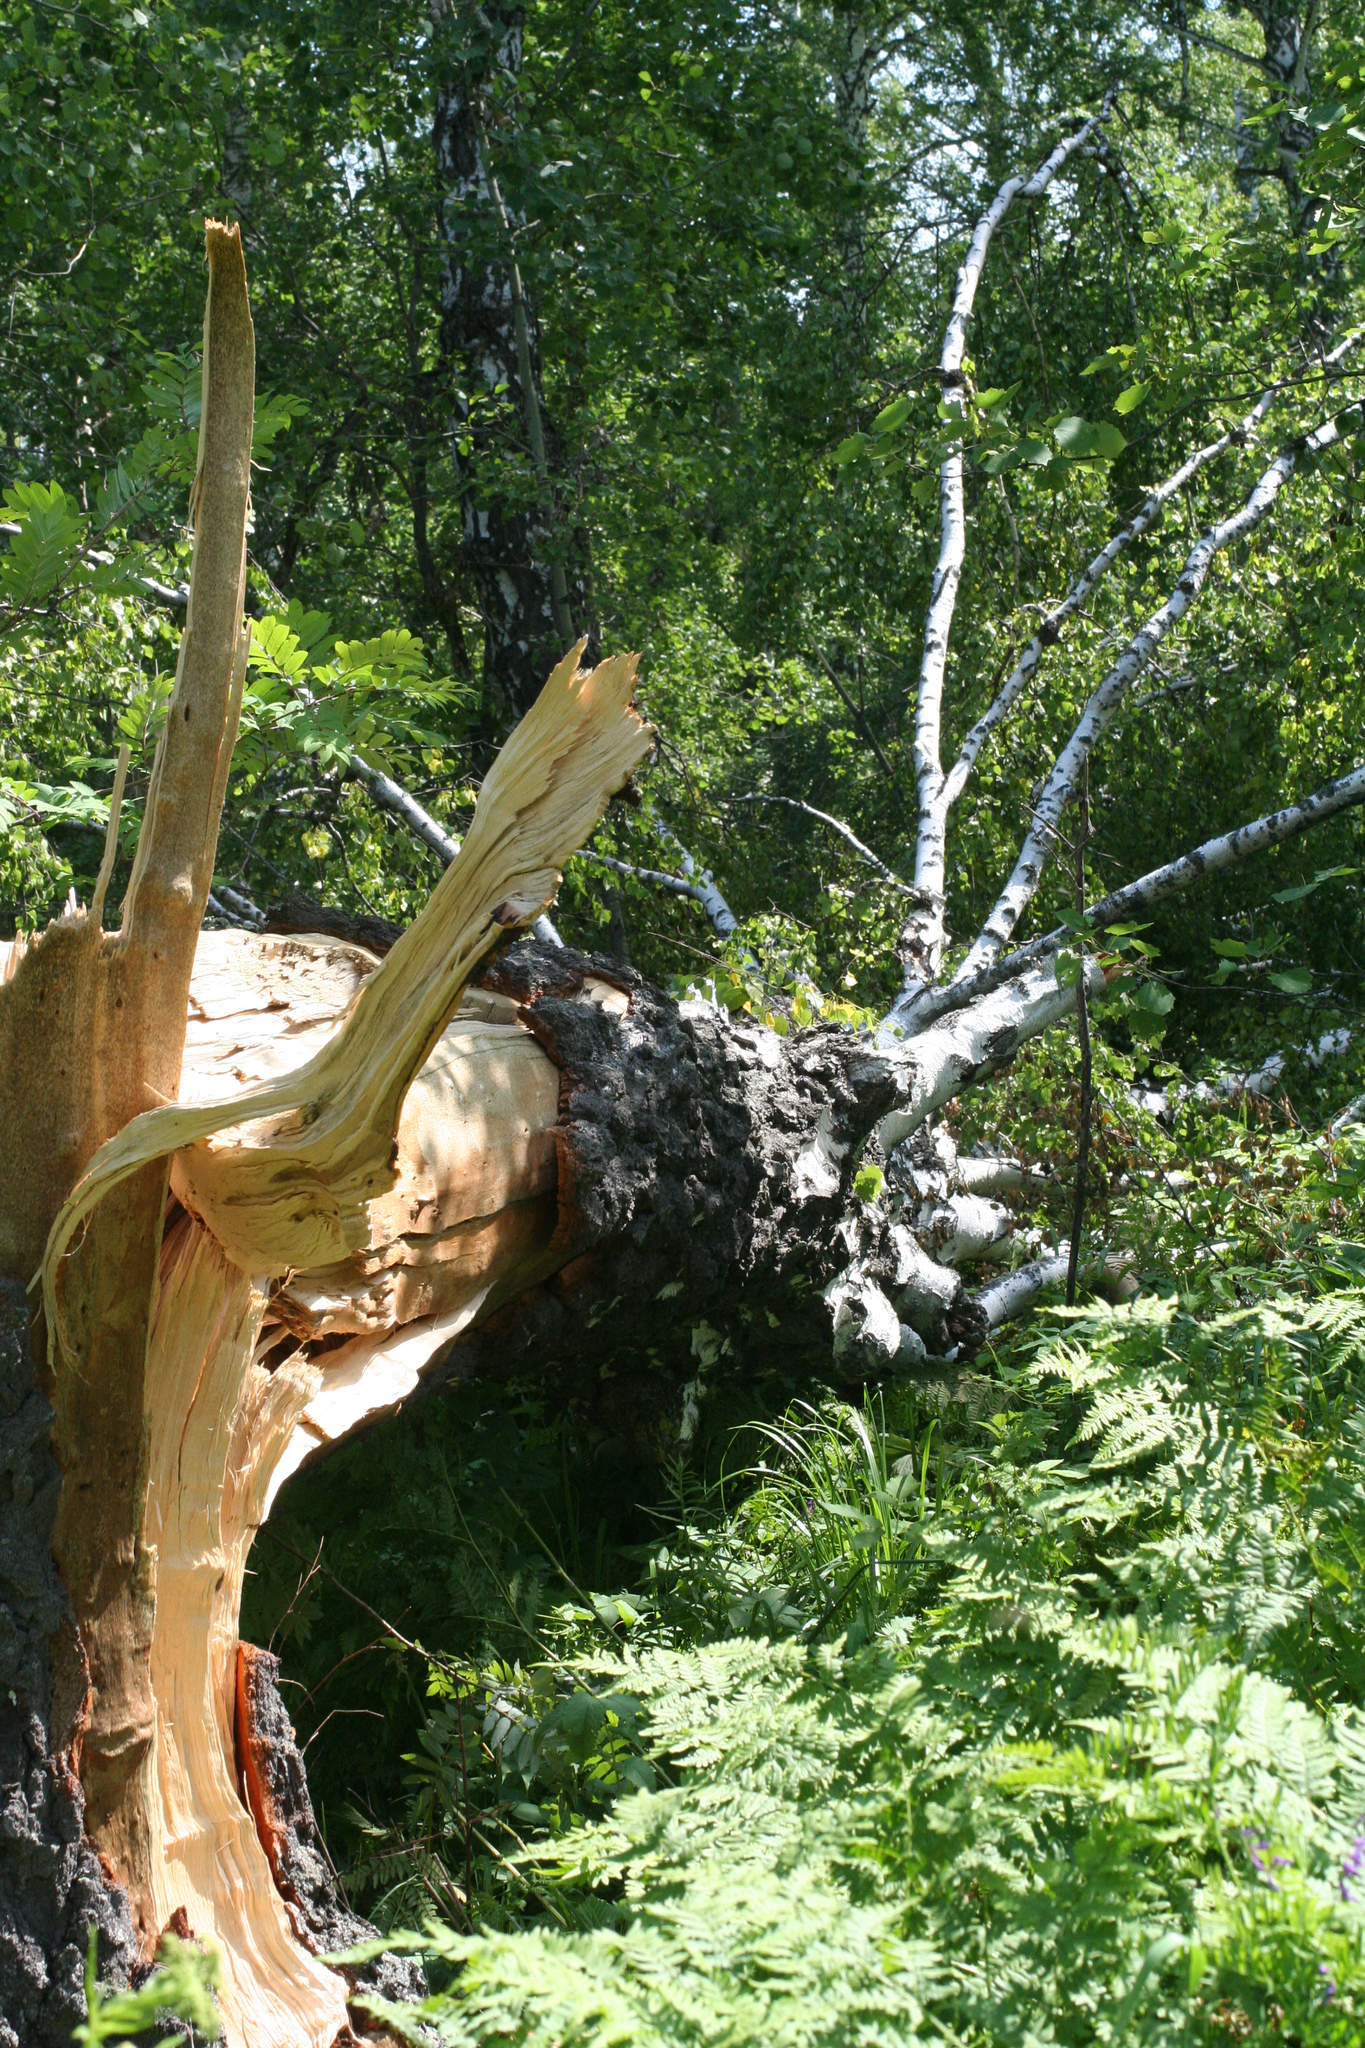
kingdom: Plantae
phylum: Tracheophyta
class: Magnoliopsida
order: Fagales
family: Betulaceae
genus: Betula
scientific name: Betula pendula
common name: Silver birch
